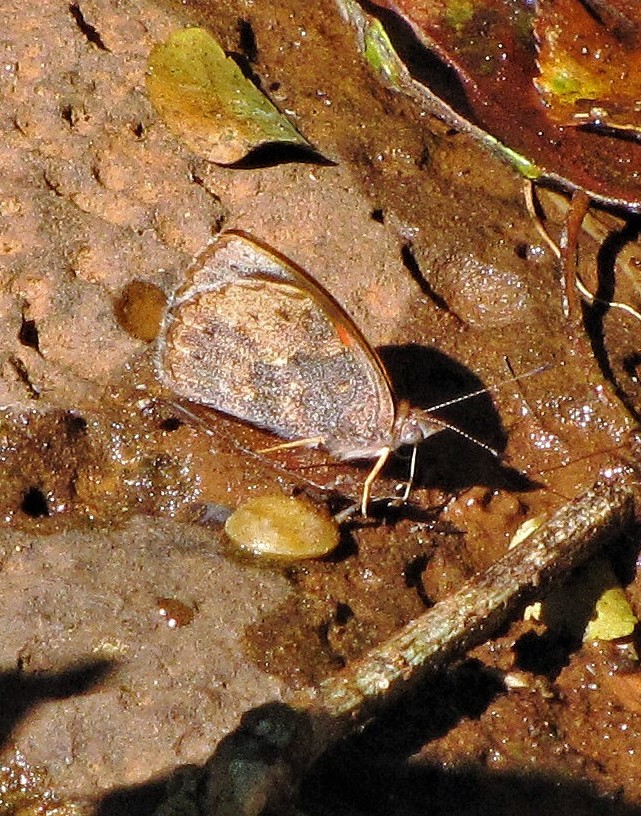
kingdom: Animalia
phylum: Arthropoda
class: Insecta
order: Lepidoptera
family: Nymphalidae
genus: Haematera
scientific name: Haematera pyrame
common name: Blind eighty-eight
